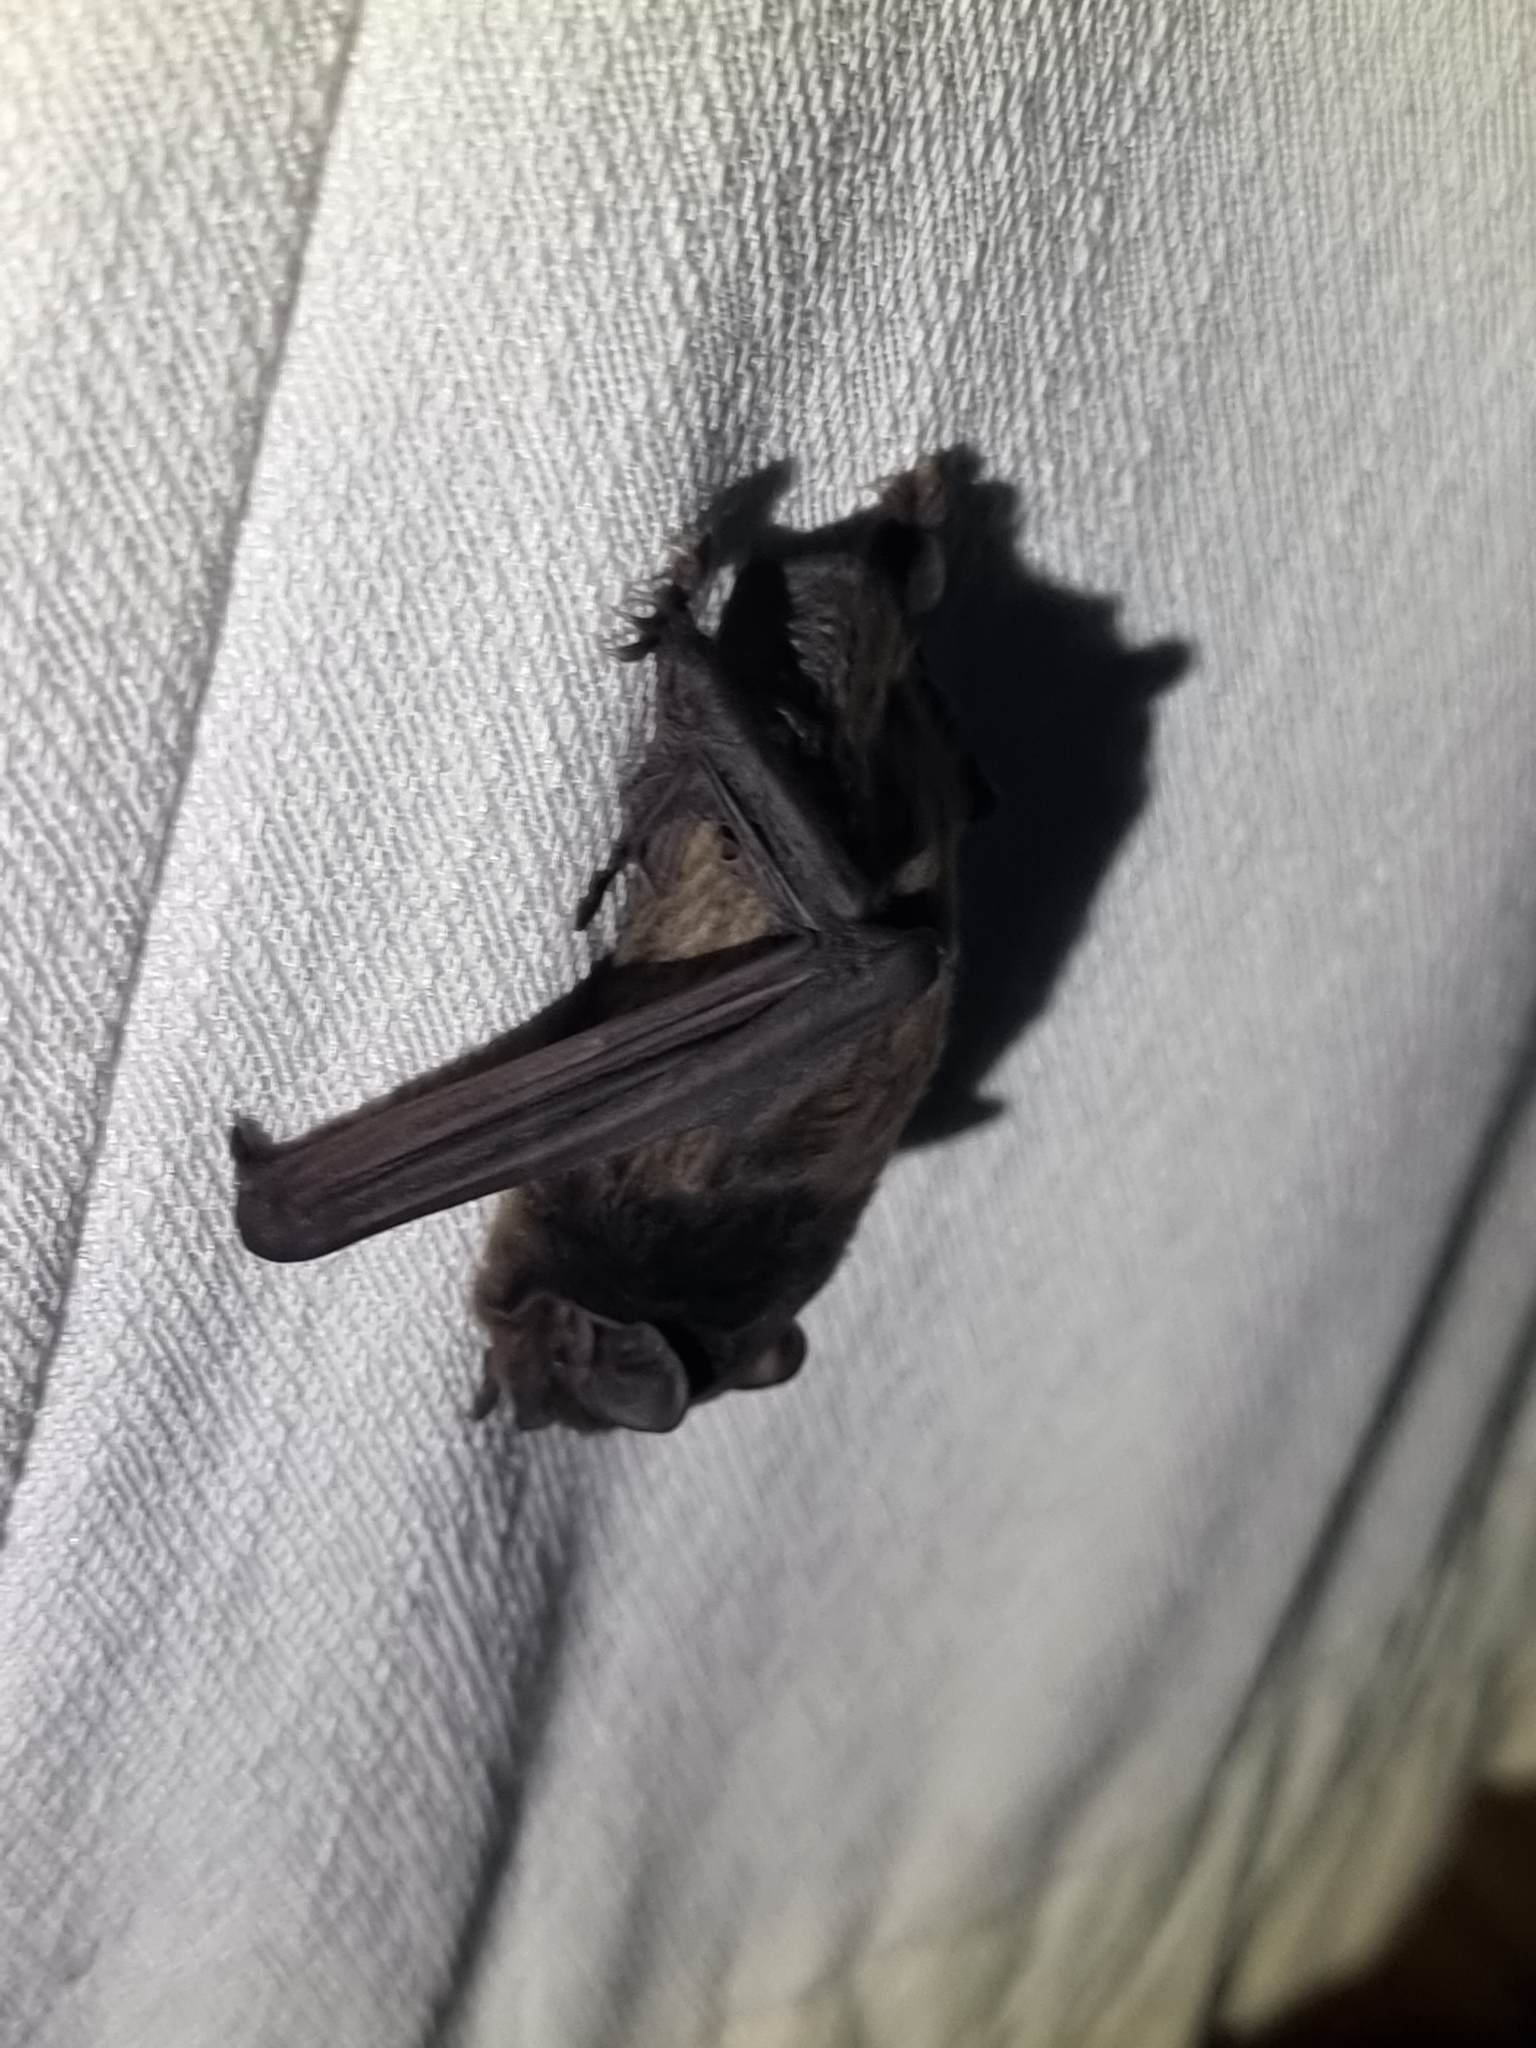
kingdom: Animalia
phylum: Chordata
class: Mammalia
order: Chiroptera
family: Vespertilionidae
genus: Chalinolobus
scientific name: Chalinolobus gouldii
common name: Gould's wattled bat
